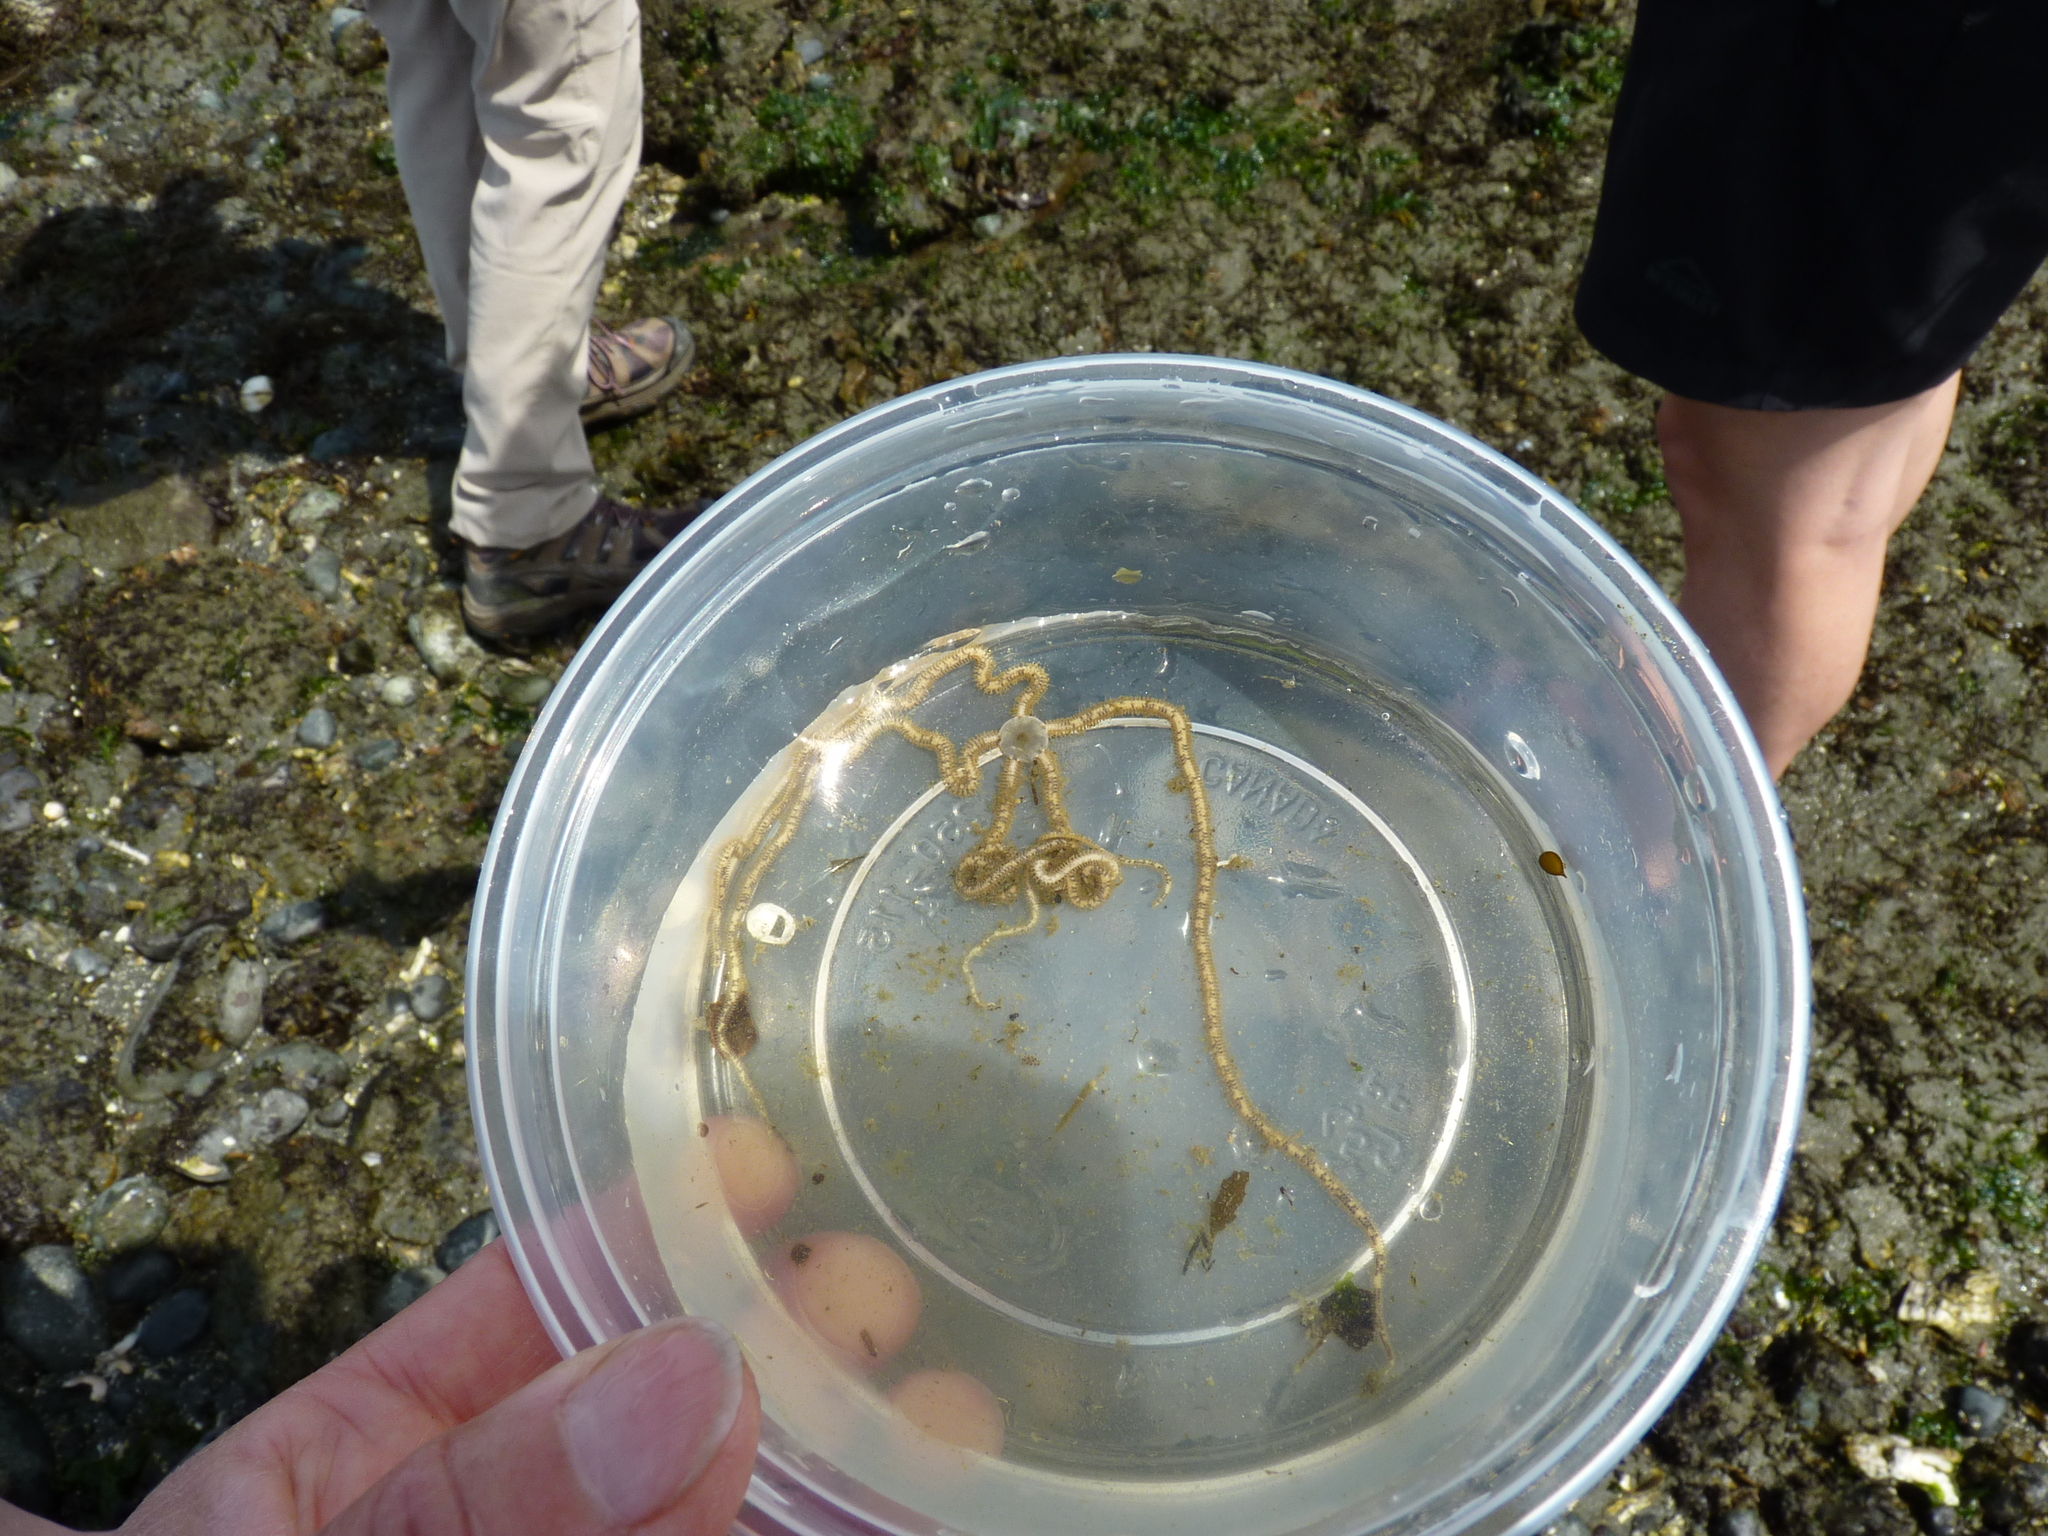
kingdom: Animalia
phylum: Echinodermata
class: Ophiuroidea
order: Amphilepidida
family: Amphiuridae
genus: Amphiodia
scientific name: Amphiodia occidentalis
